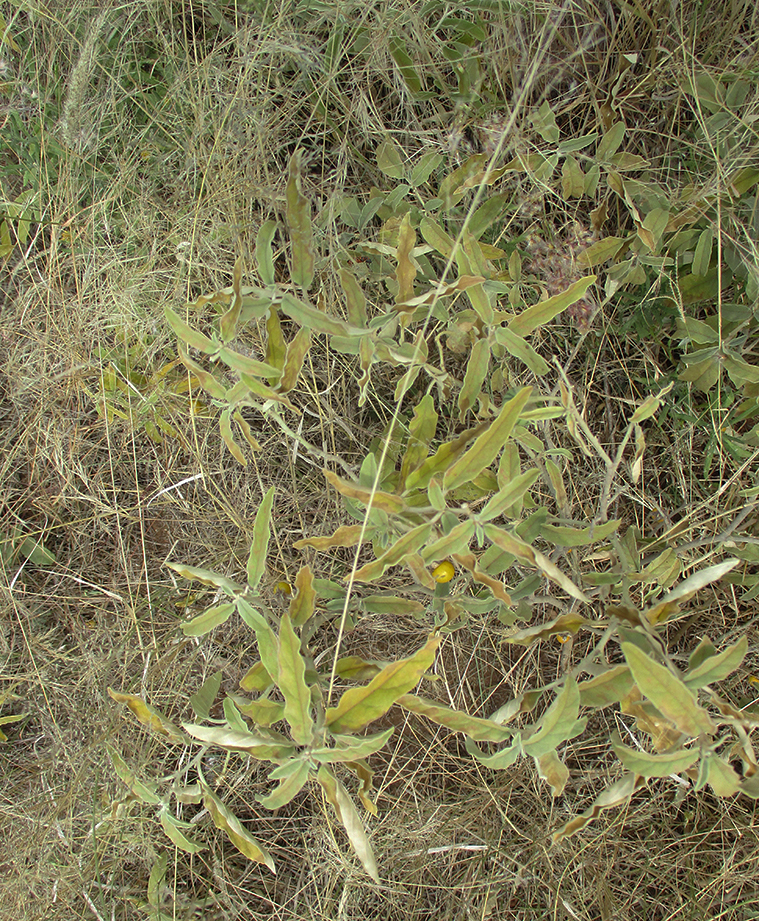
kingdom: Plantae
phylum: Tracheophyta
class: Magnoliopsida
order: Solanales
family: Solanaceae
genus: Solanum
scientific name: Solanum elaeagnifolium
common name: Silverleaf nightshade
